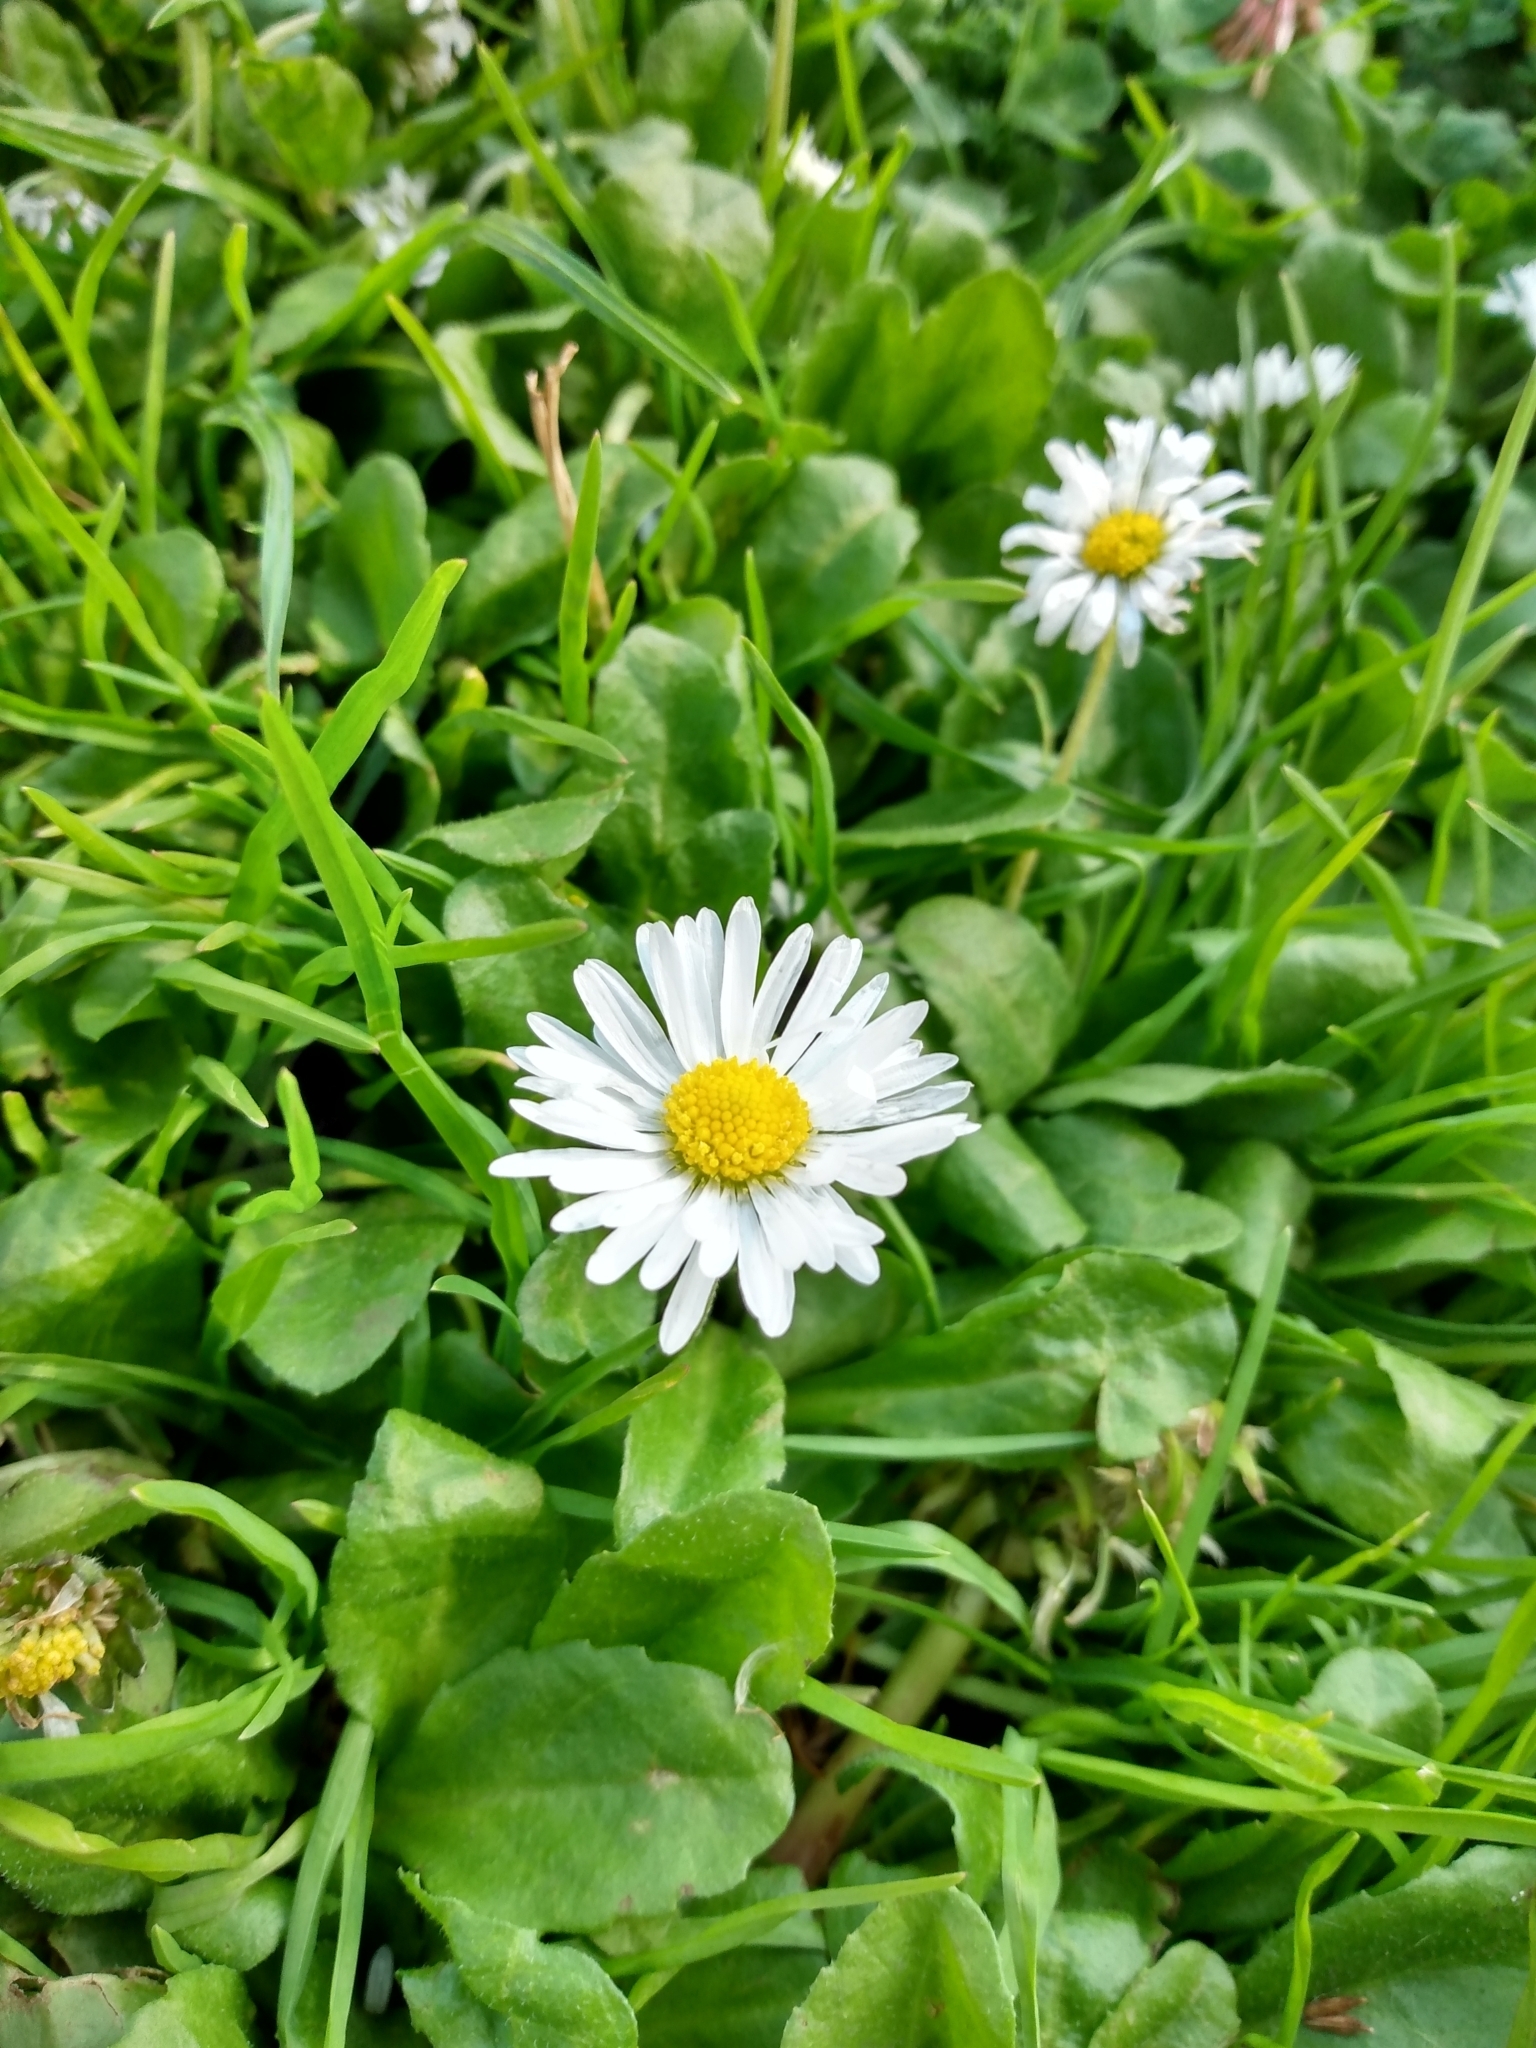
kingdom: Plantae
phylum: Tracheophyta
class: Magnoliopsida
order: Asterales
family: Asteraceae
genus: Bellis
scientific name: Bellis perennis
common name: Lawndaisy
